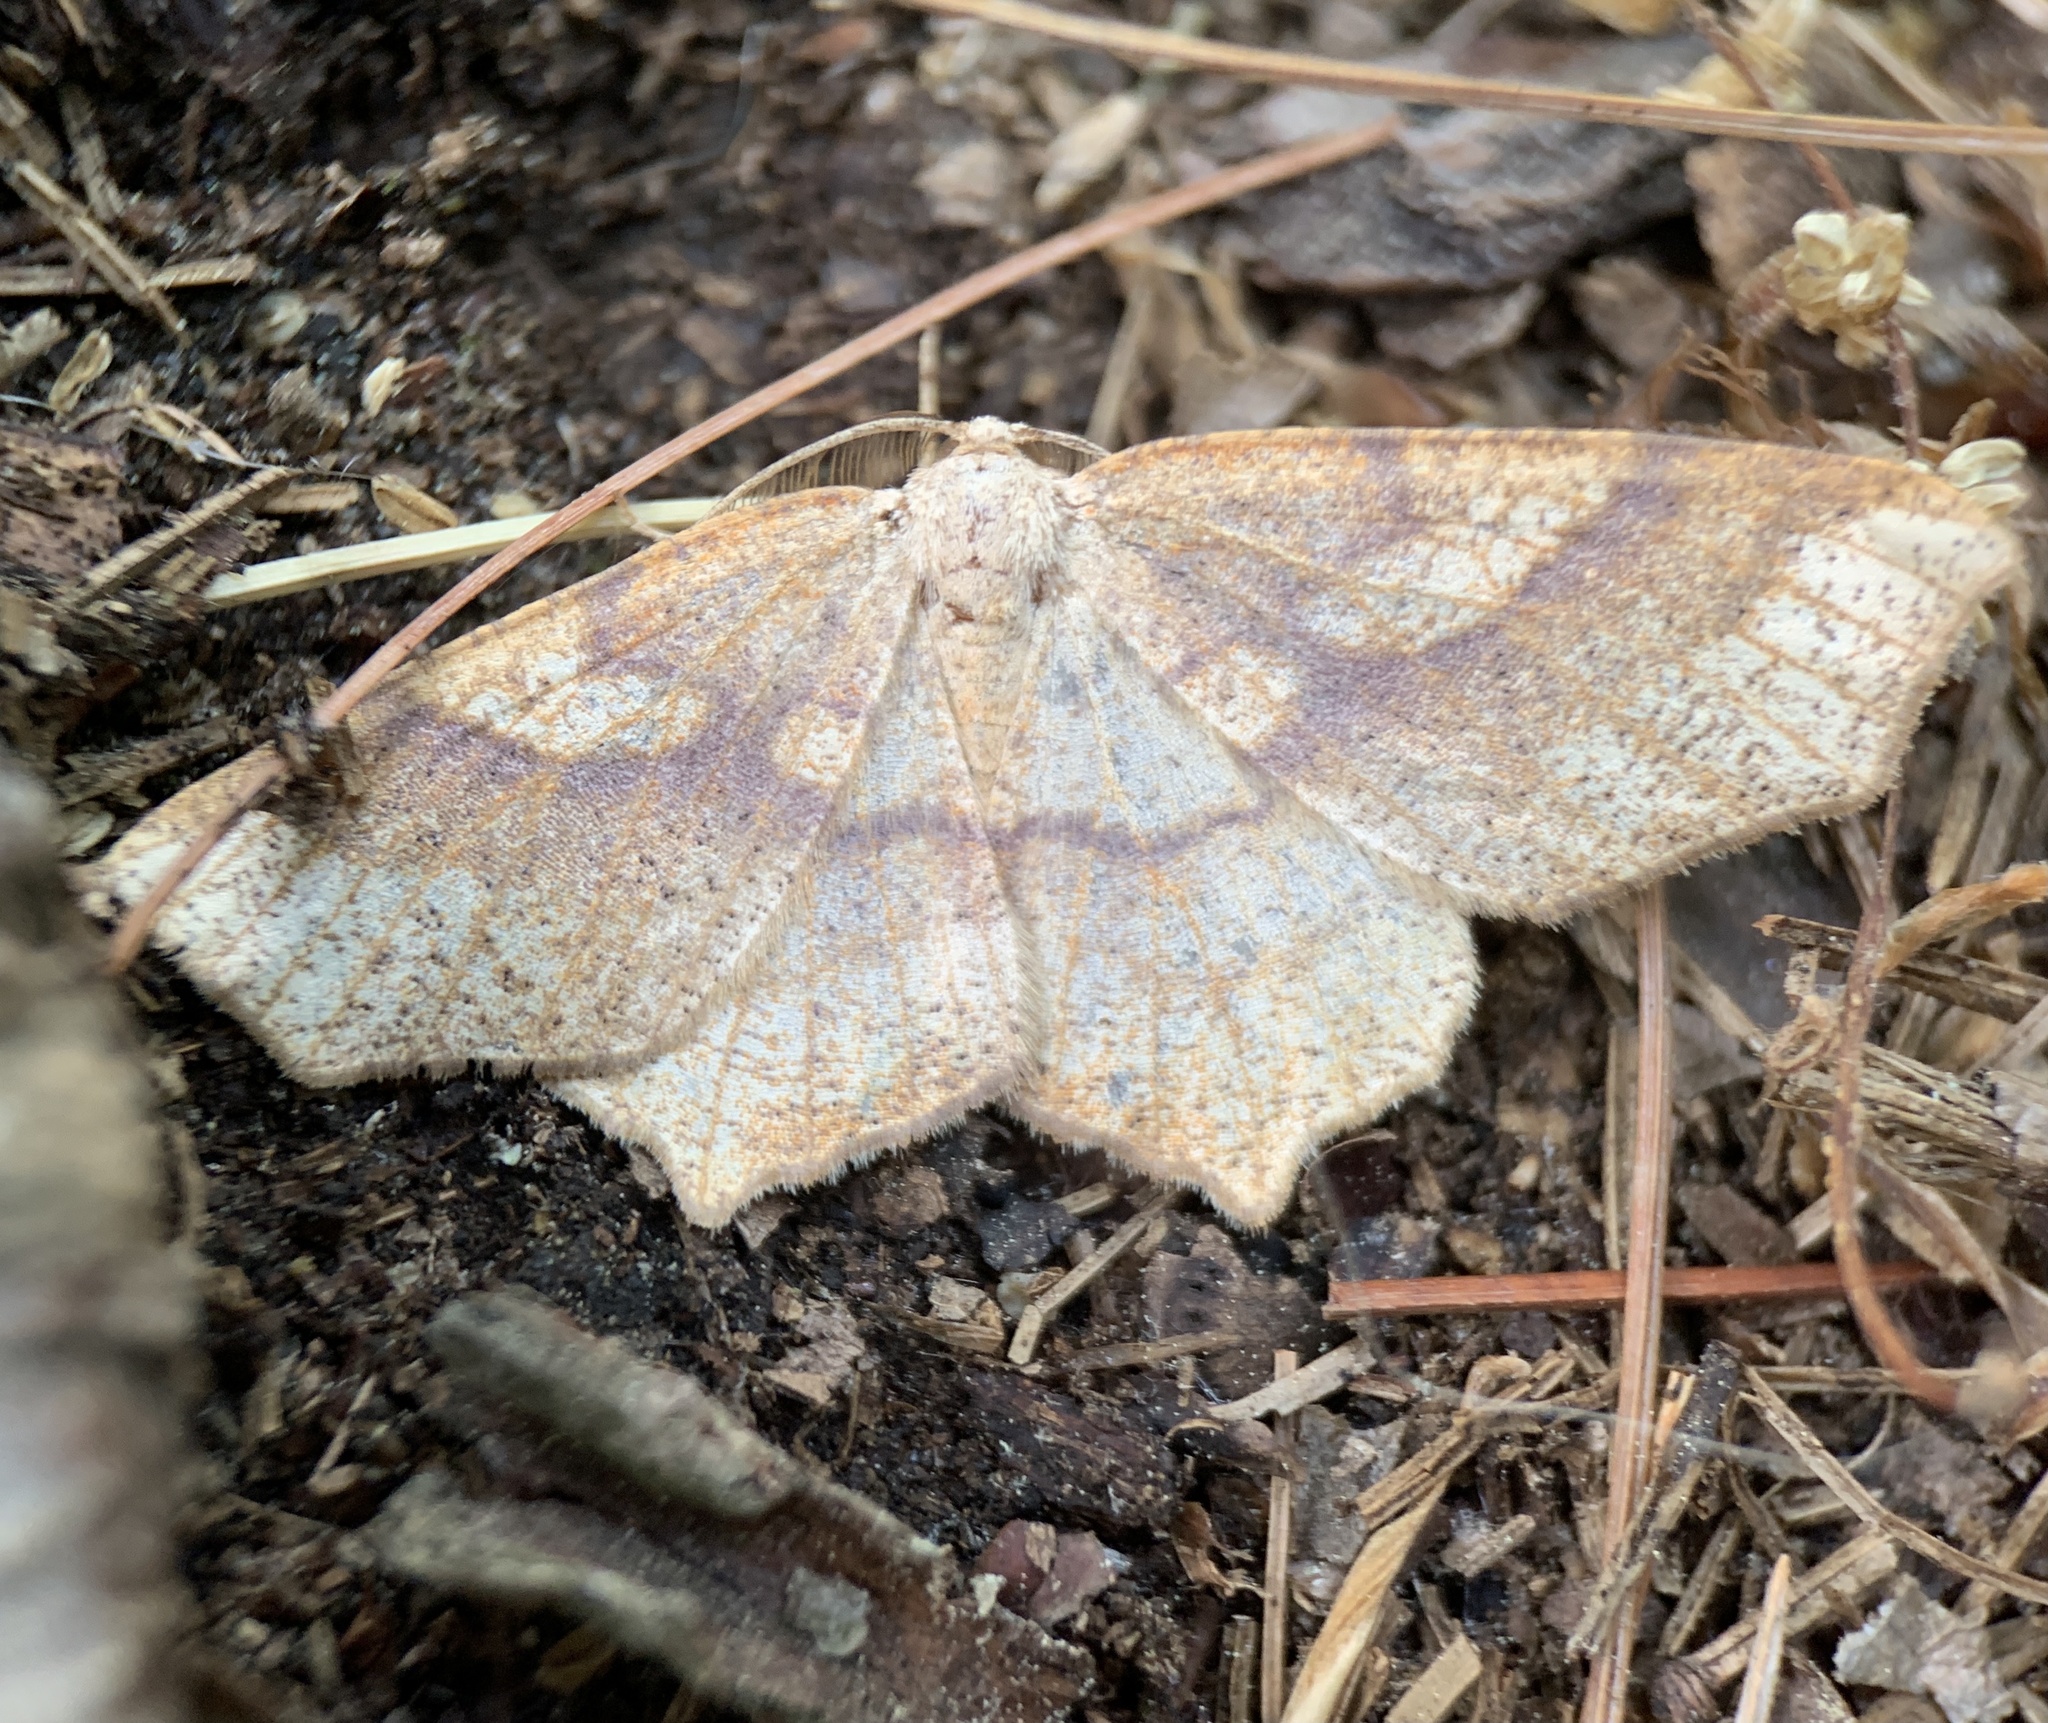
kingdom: Animalia
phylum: Arthropoda
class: Insecta
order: Lepidoptera
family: Geometridae
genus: Besma
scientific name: Besma quercivoraria
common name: Oak besma
